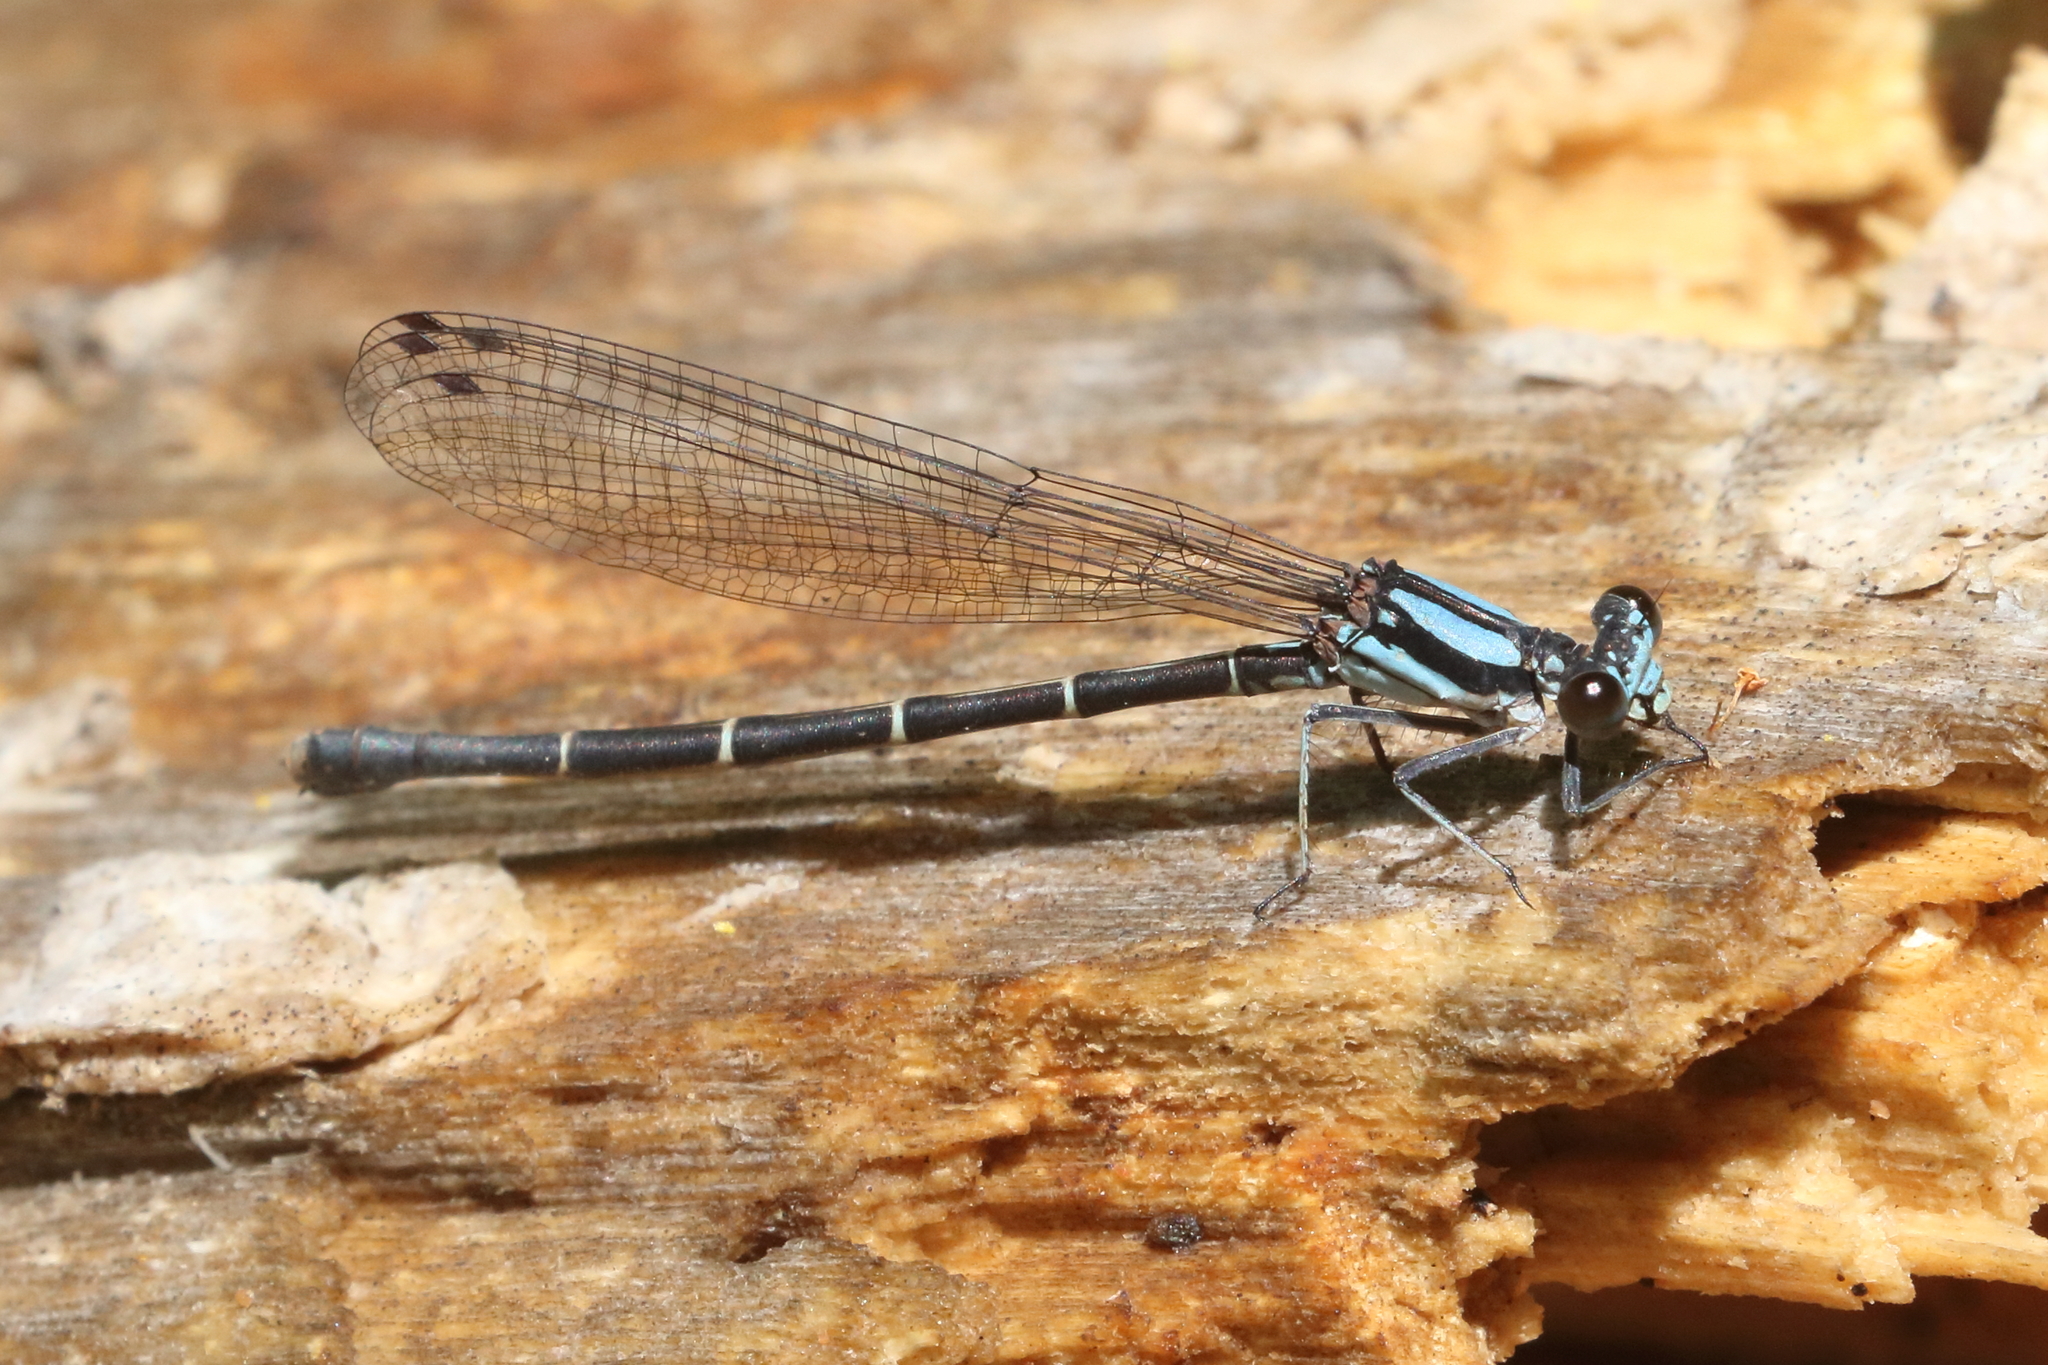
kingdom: Animalia
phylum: Arthropoda
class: Insecta
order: Odonata
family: Coenagrionidae
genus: Argia
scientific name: Argia tibialis
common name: Blue-tipped dancer
